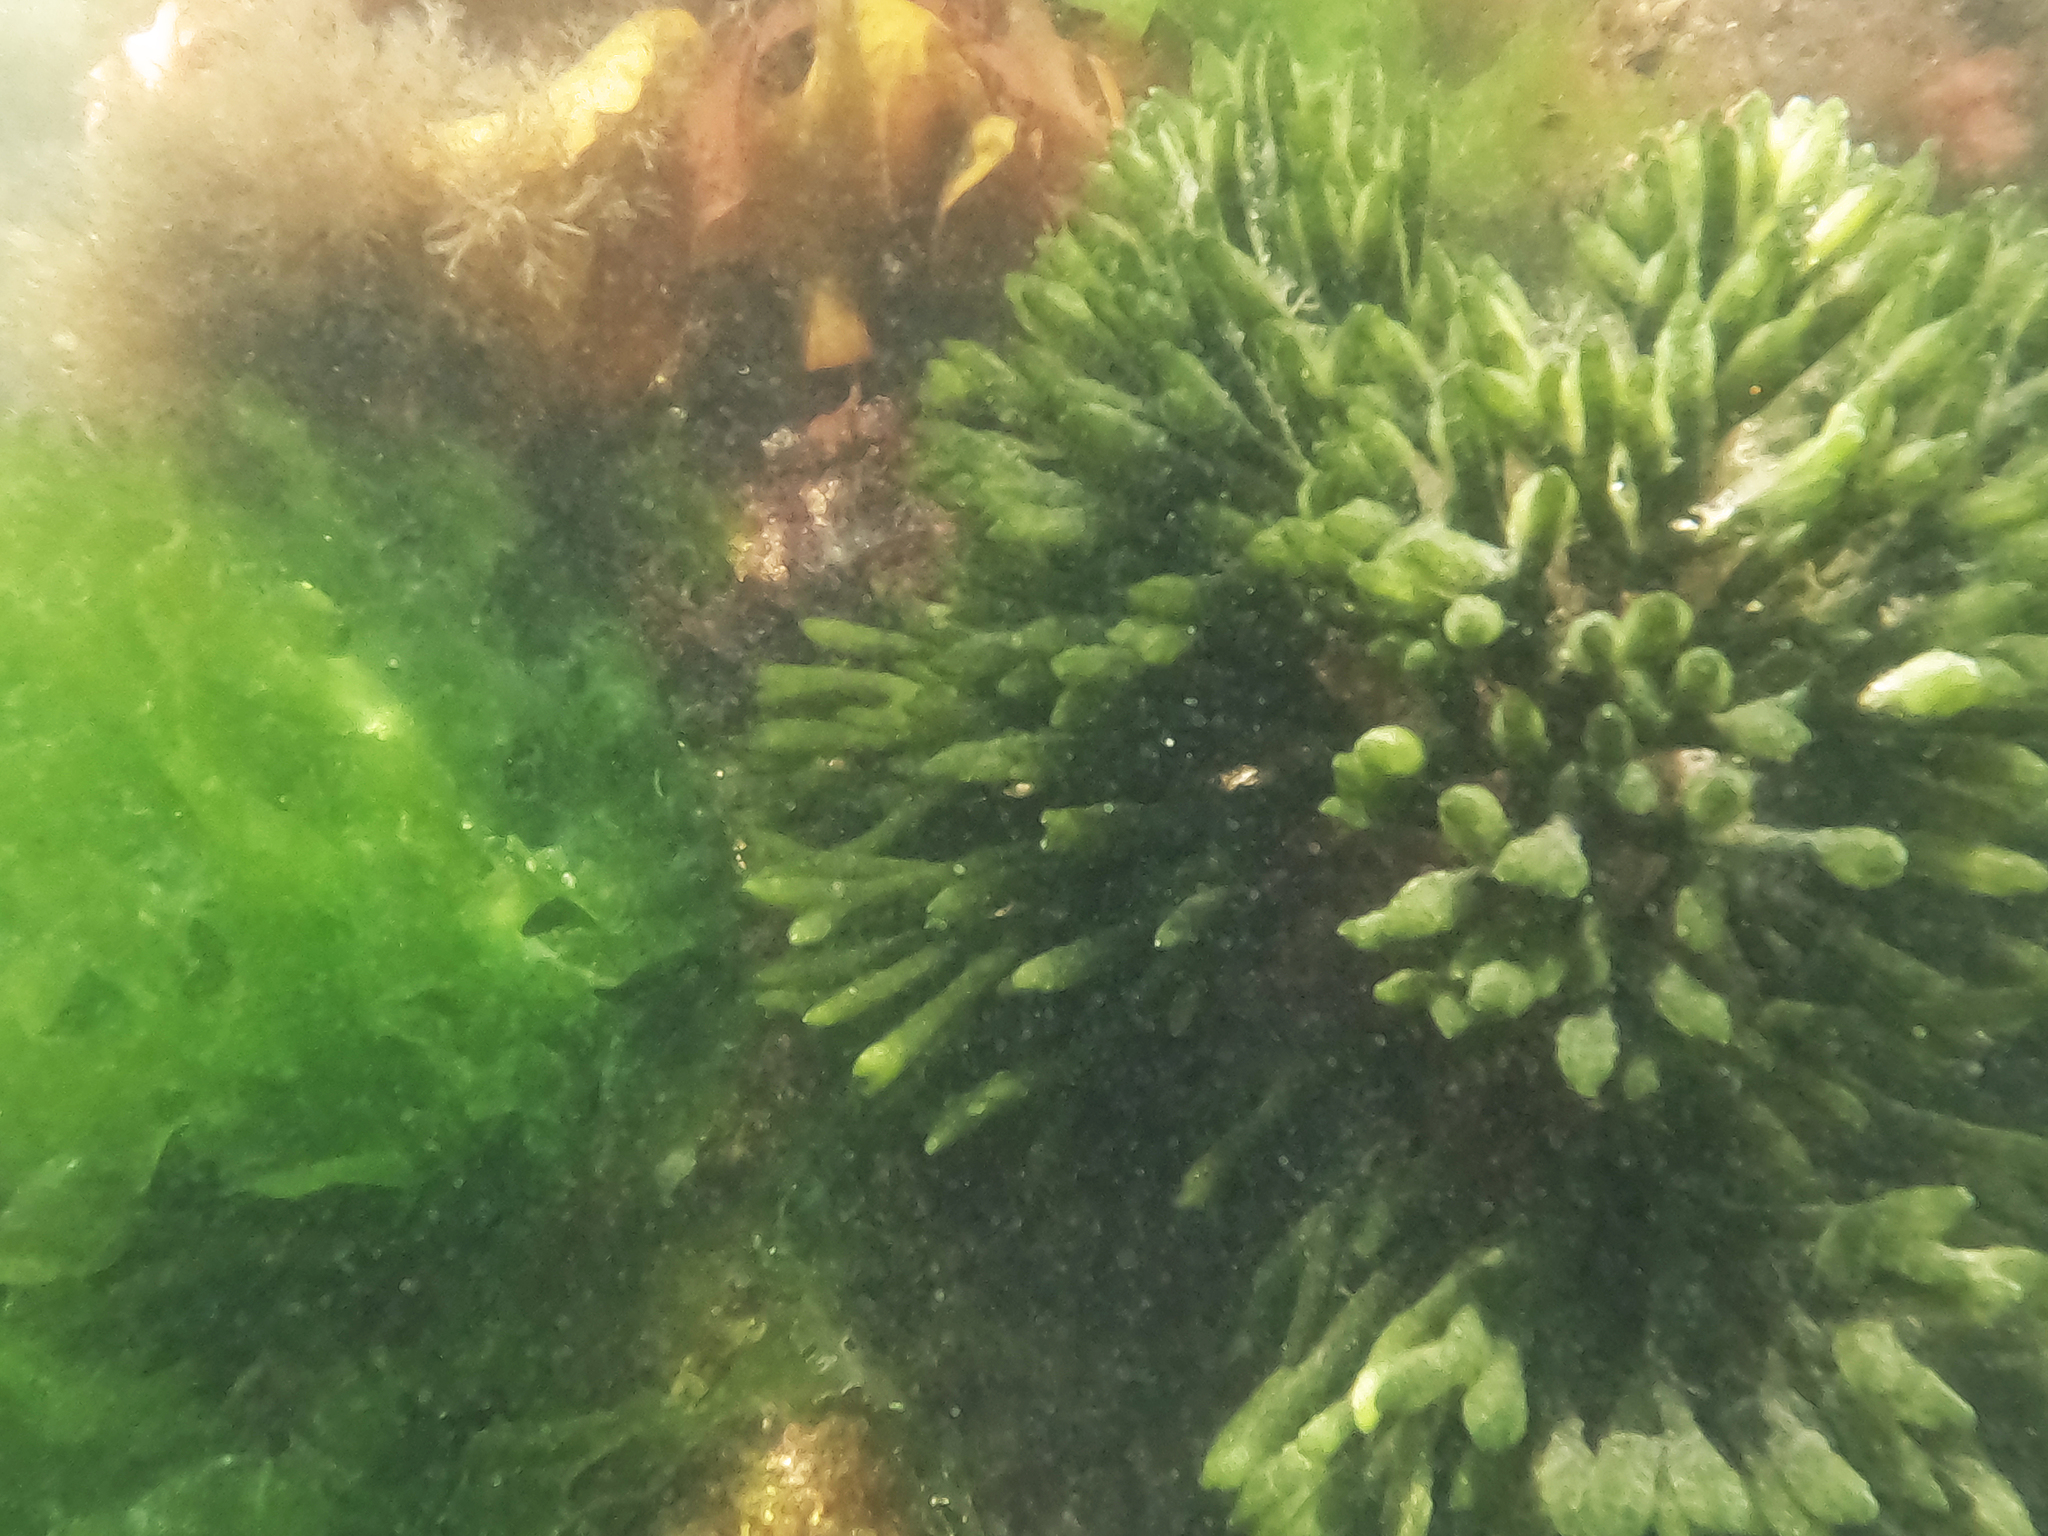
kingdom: Plantae
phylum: Chlorophyta
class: Ulvophyceae
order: Bryopsidales
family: Codiaceae
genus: Codium
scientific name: Codium fragile
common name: Dead man's fingers
